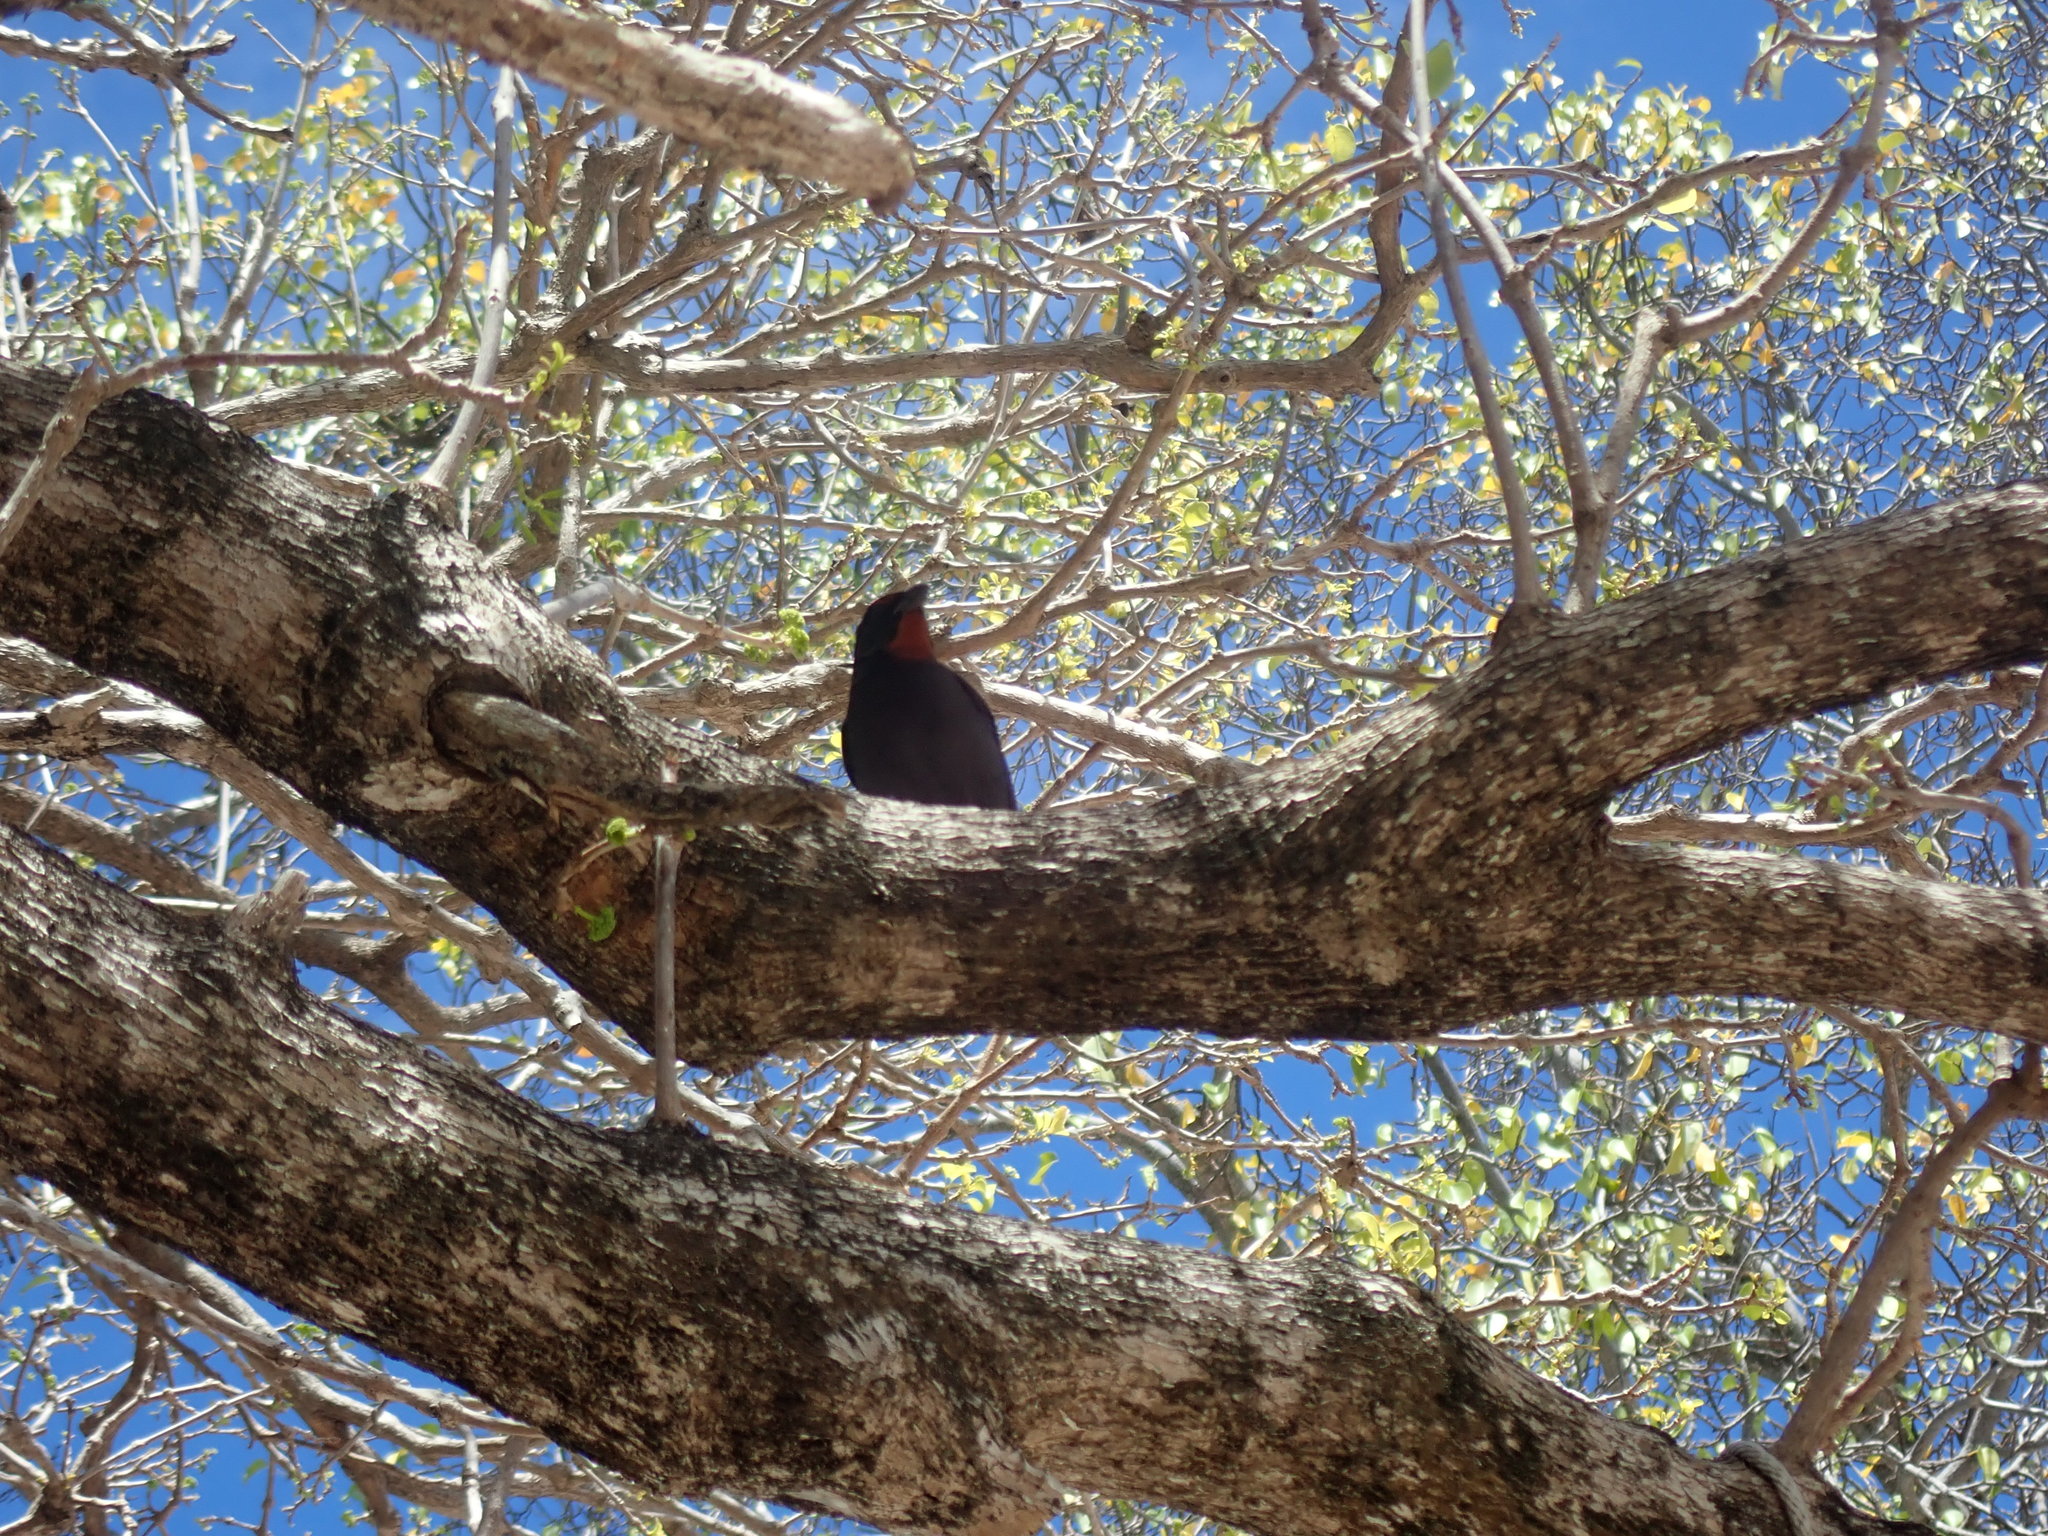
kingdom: Animalia
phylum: Chordata
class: Aves
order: Passeriformes
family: Thraupidae
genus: Loxigilla
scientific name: Loxigilla noctis
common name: Lesser antillean bullfinch
